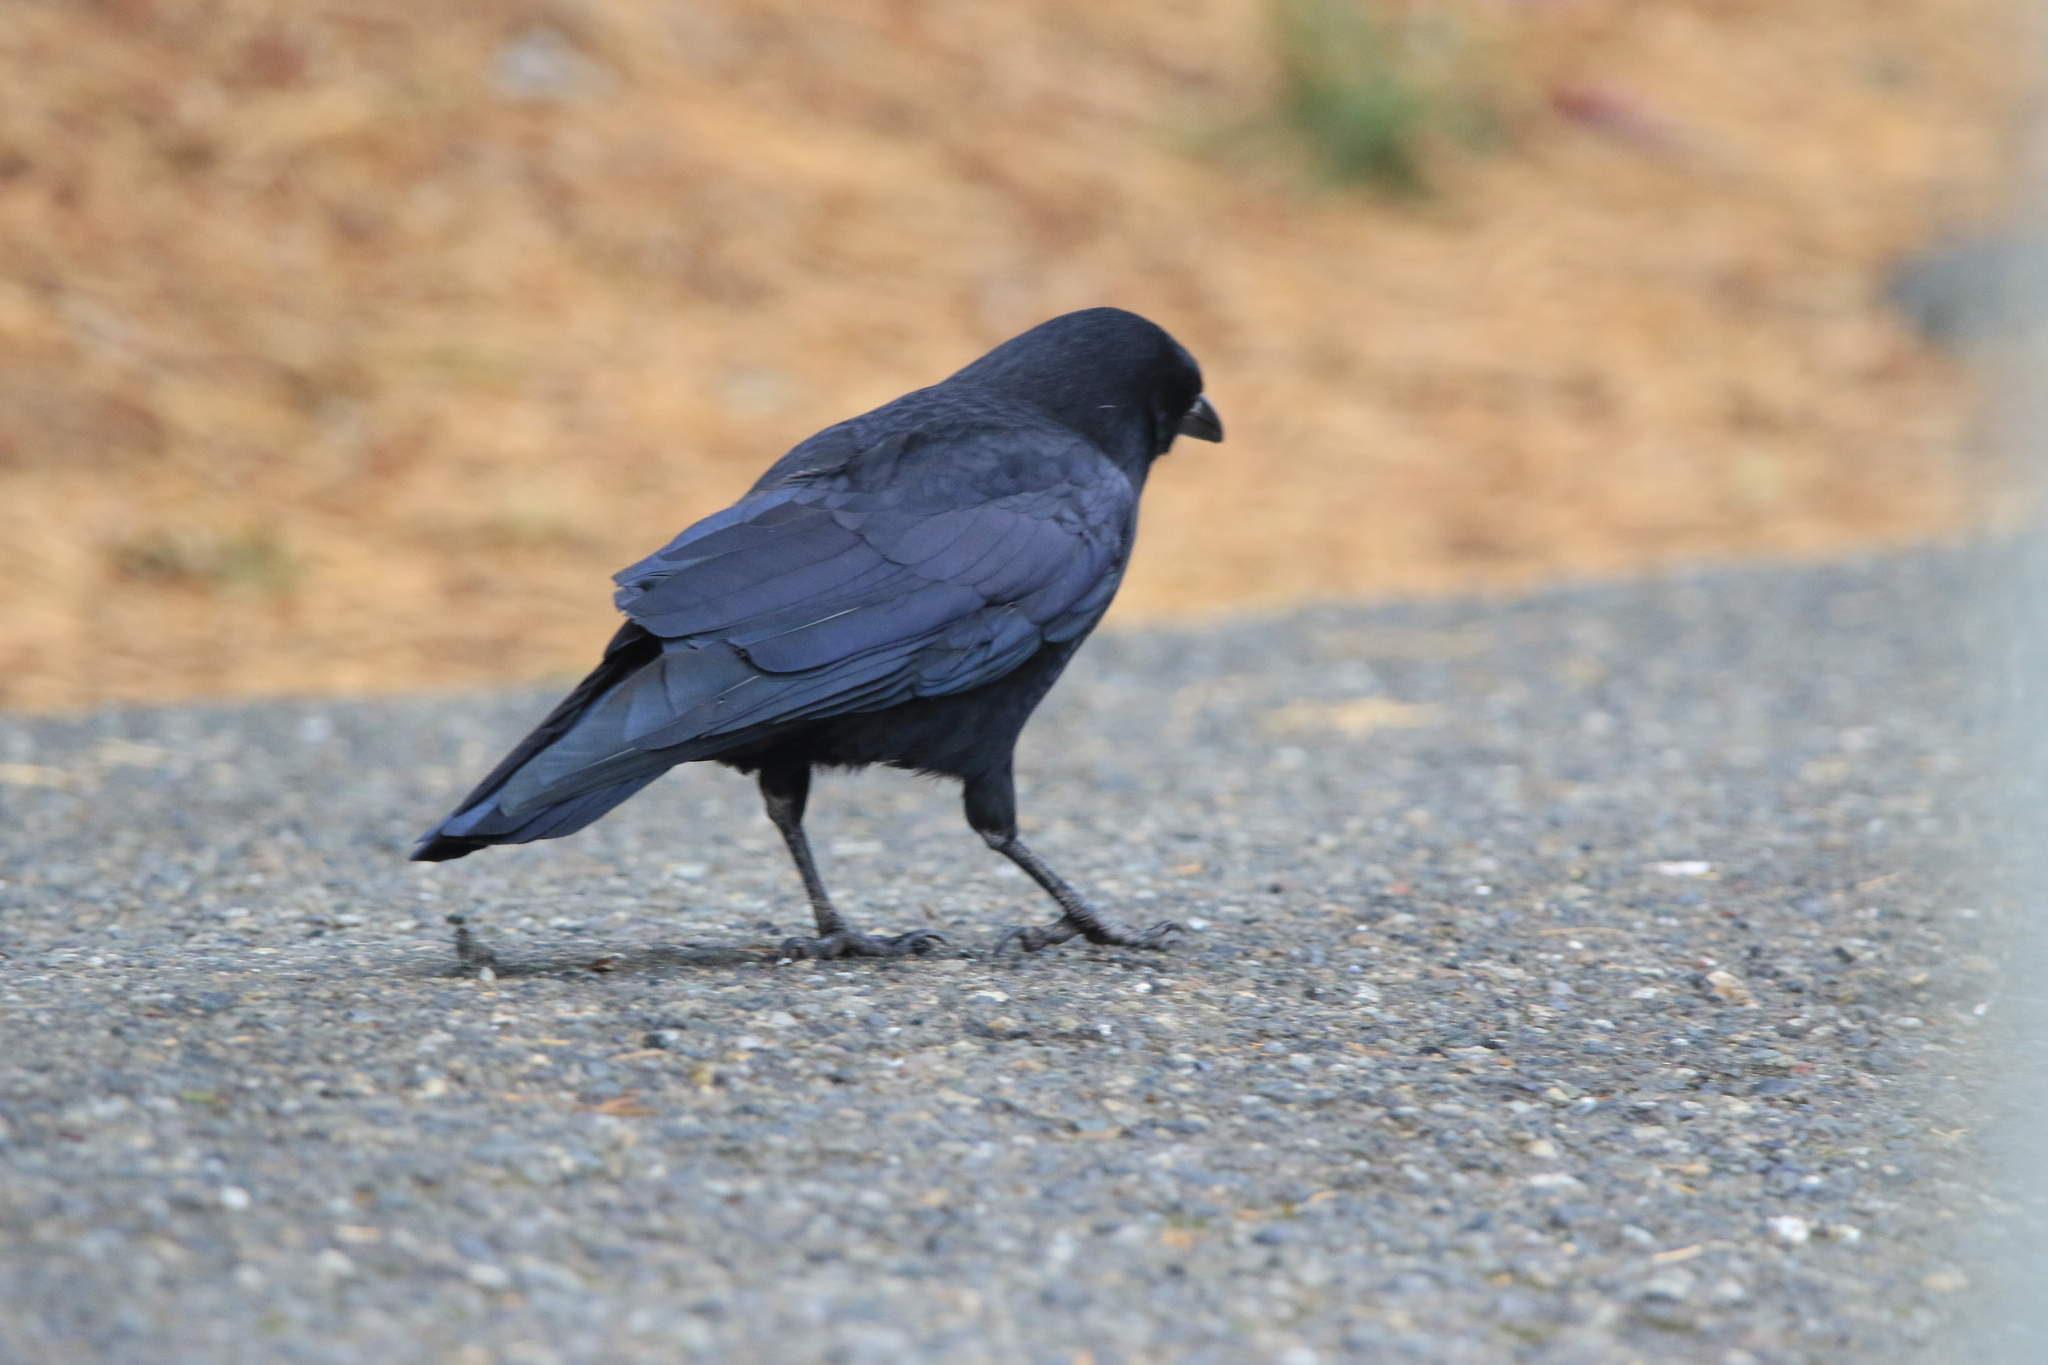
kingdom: Animalia
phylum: Chordata
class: Aves
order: Passeriformes
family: Corvidae
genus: Corvus
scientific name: Corvus brachyrhynchos
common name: American crow
